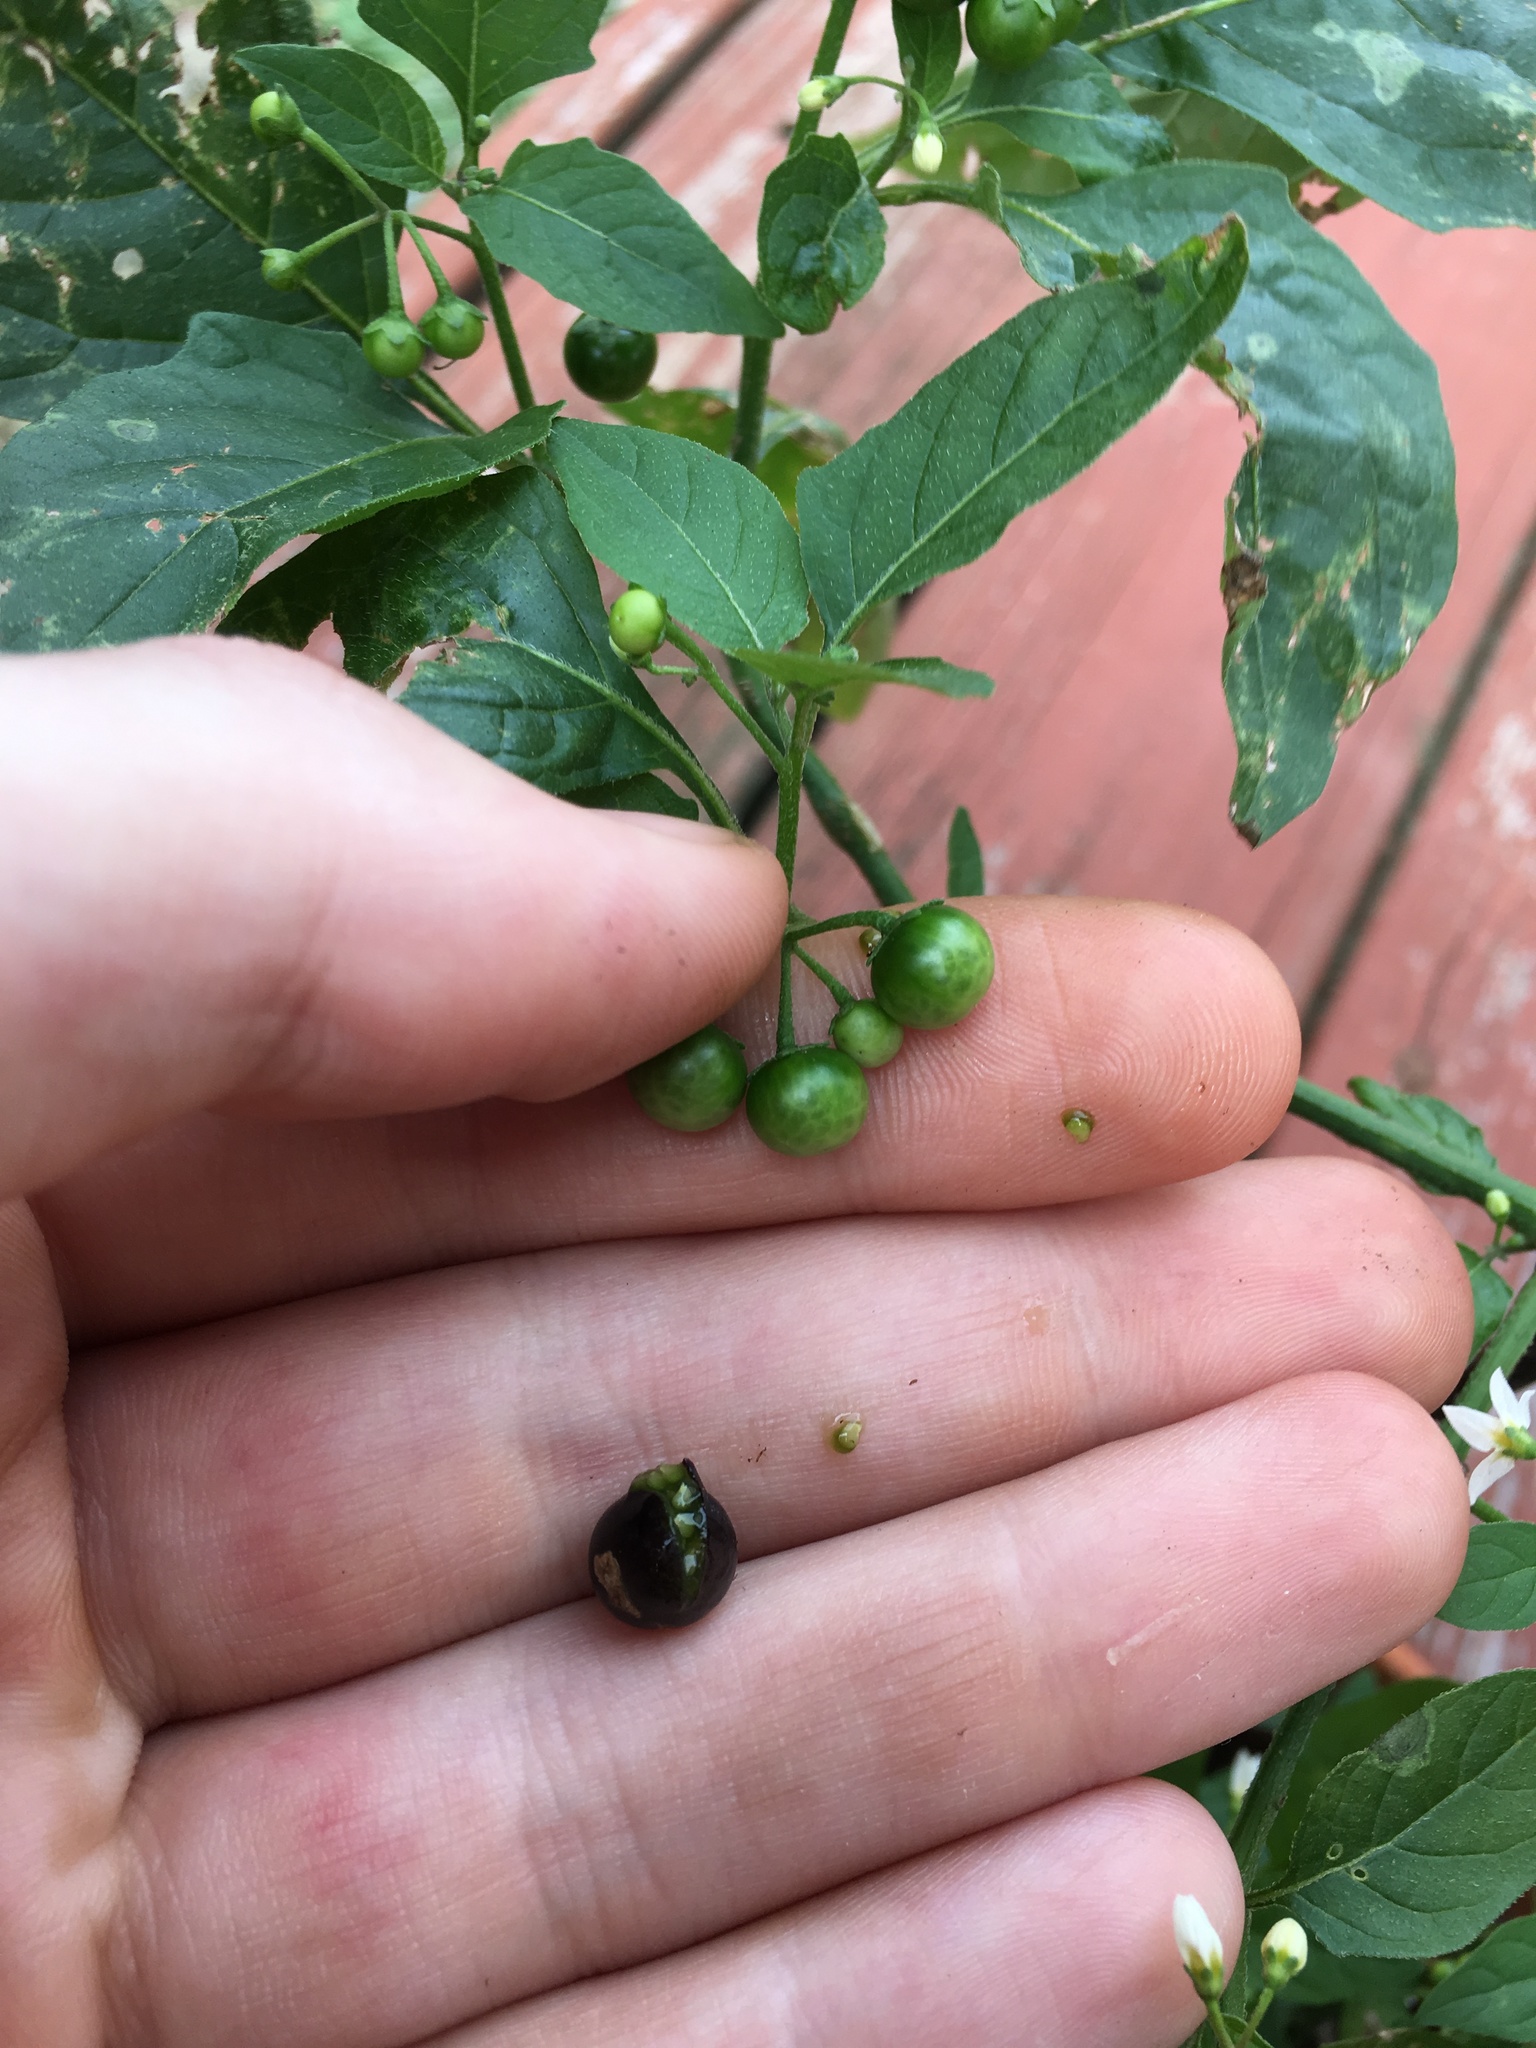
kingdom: Plantae
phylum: Tracheophyta
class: Magnoliopsida
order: Solanales
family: Solanaceae
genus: Solanum
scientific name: Solanum emulans
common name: Eastern black nightshade
